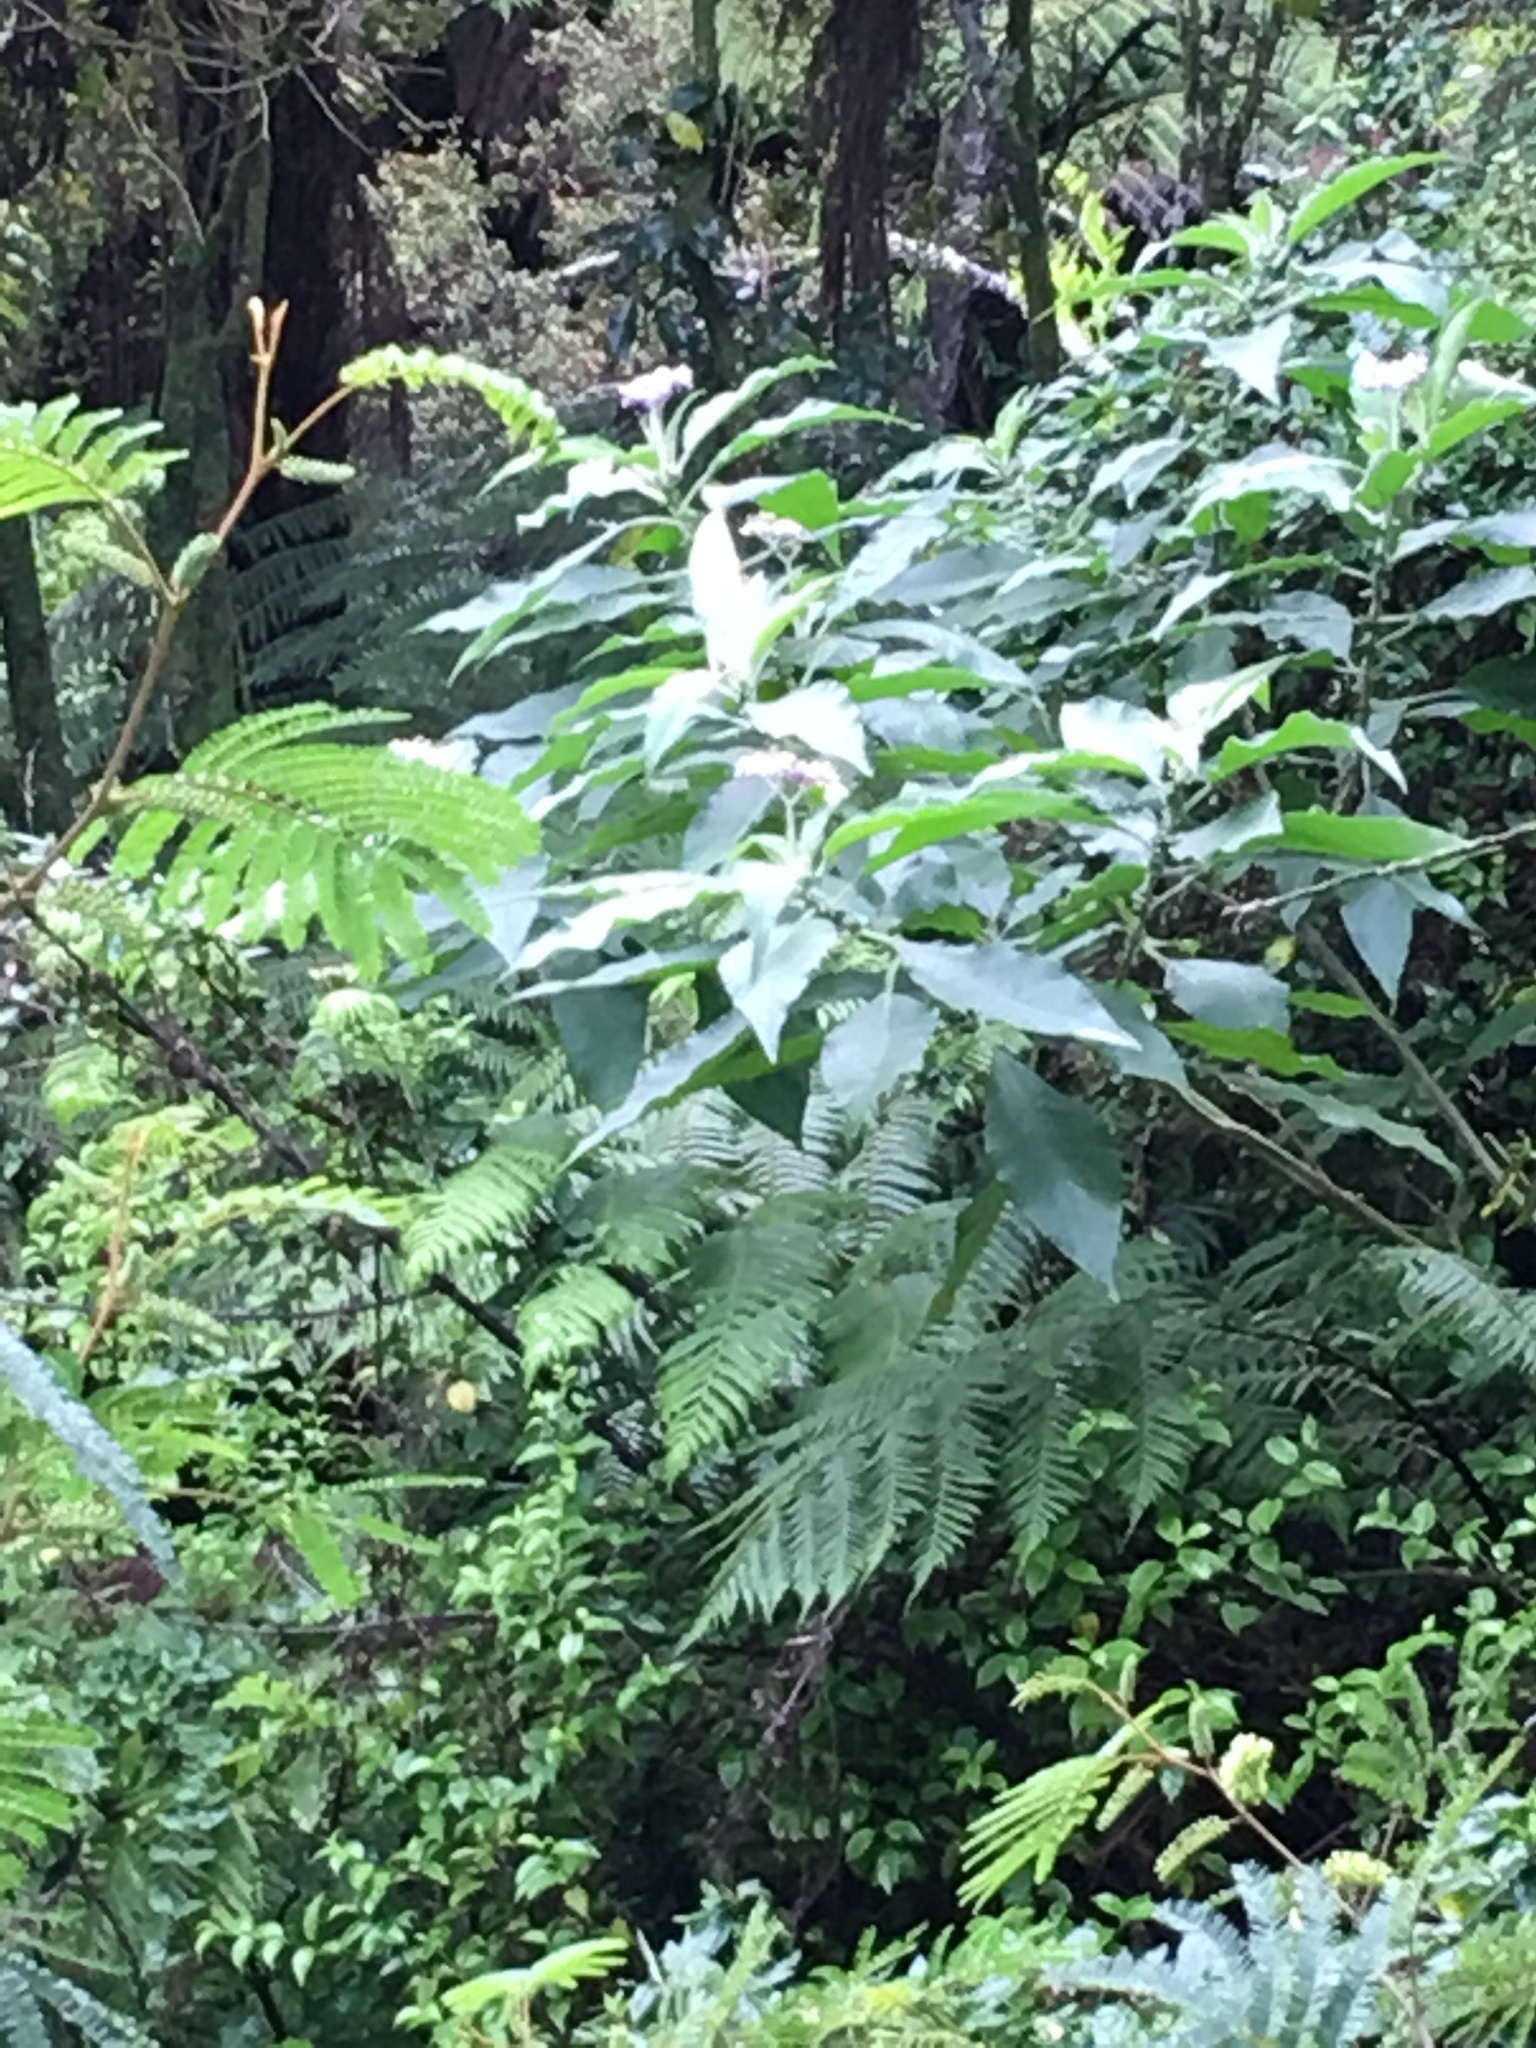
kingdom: Plantae
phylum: Tracheophyta
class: Magnoliopsida
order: Solanales
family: Solanaceae
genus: Solanum
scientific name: Solanum mauritianum
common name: Earleaf nightshade
